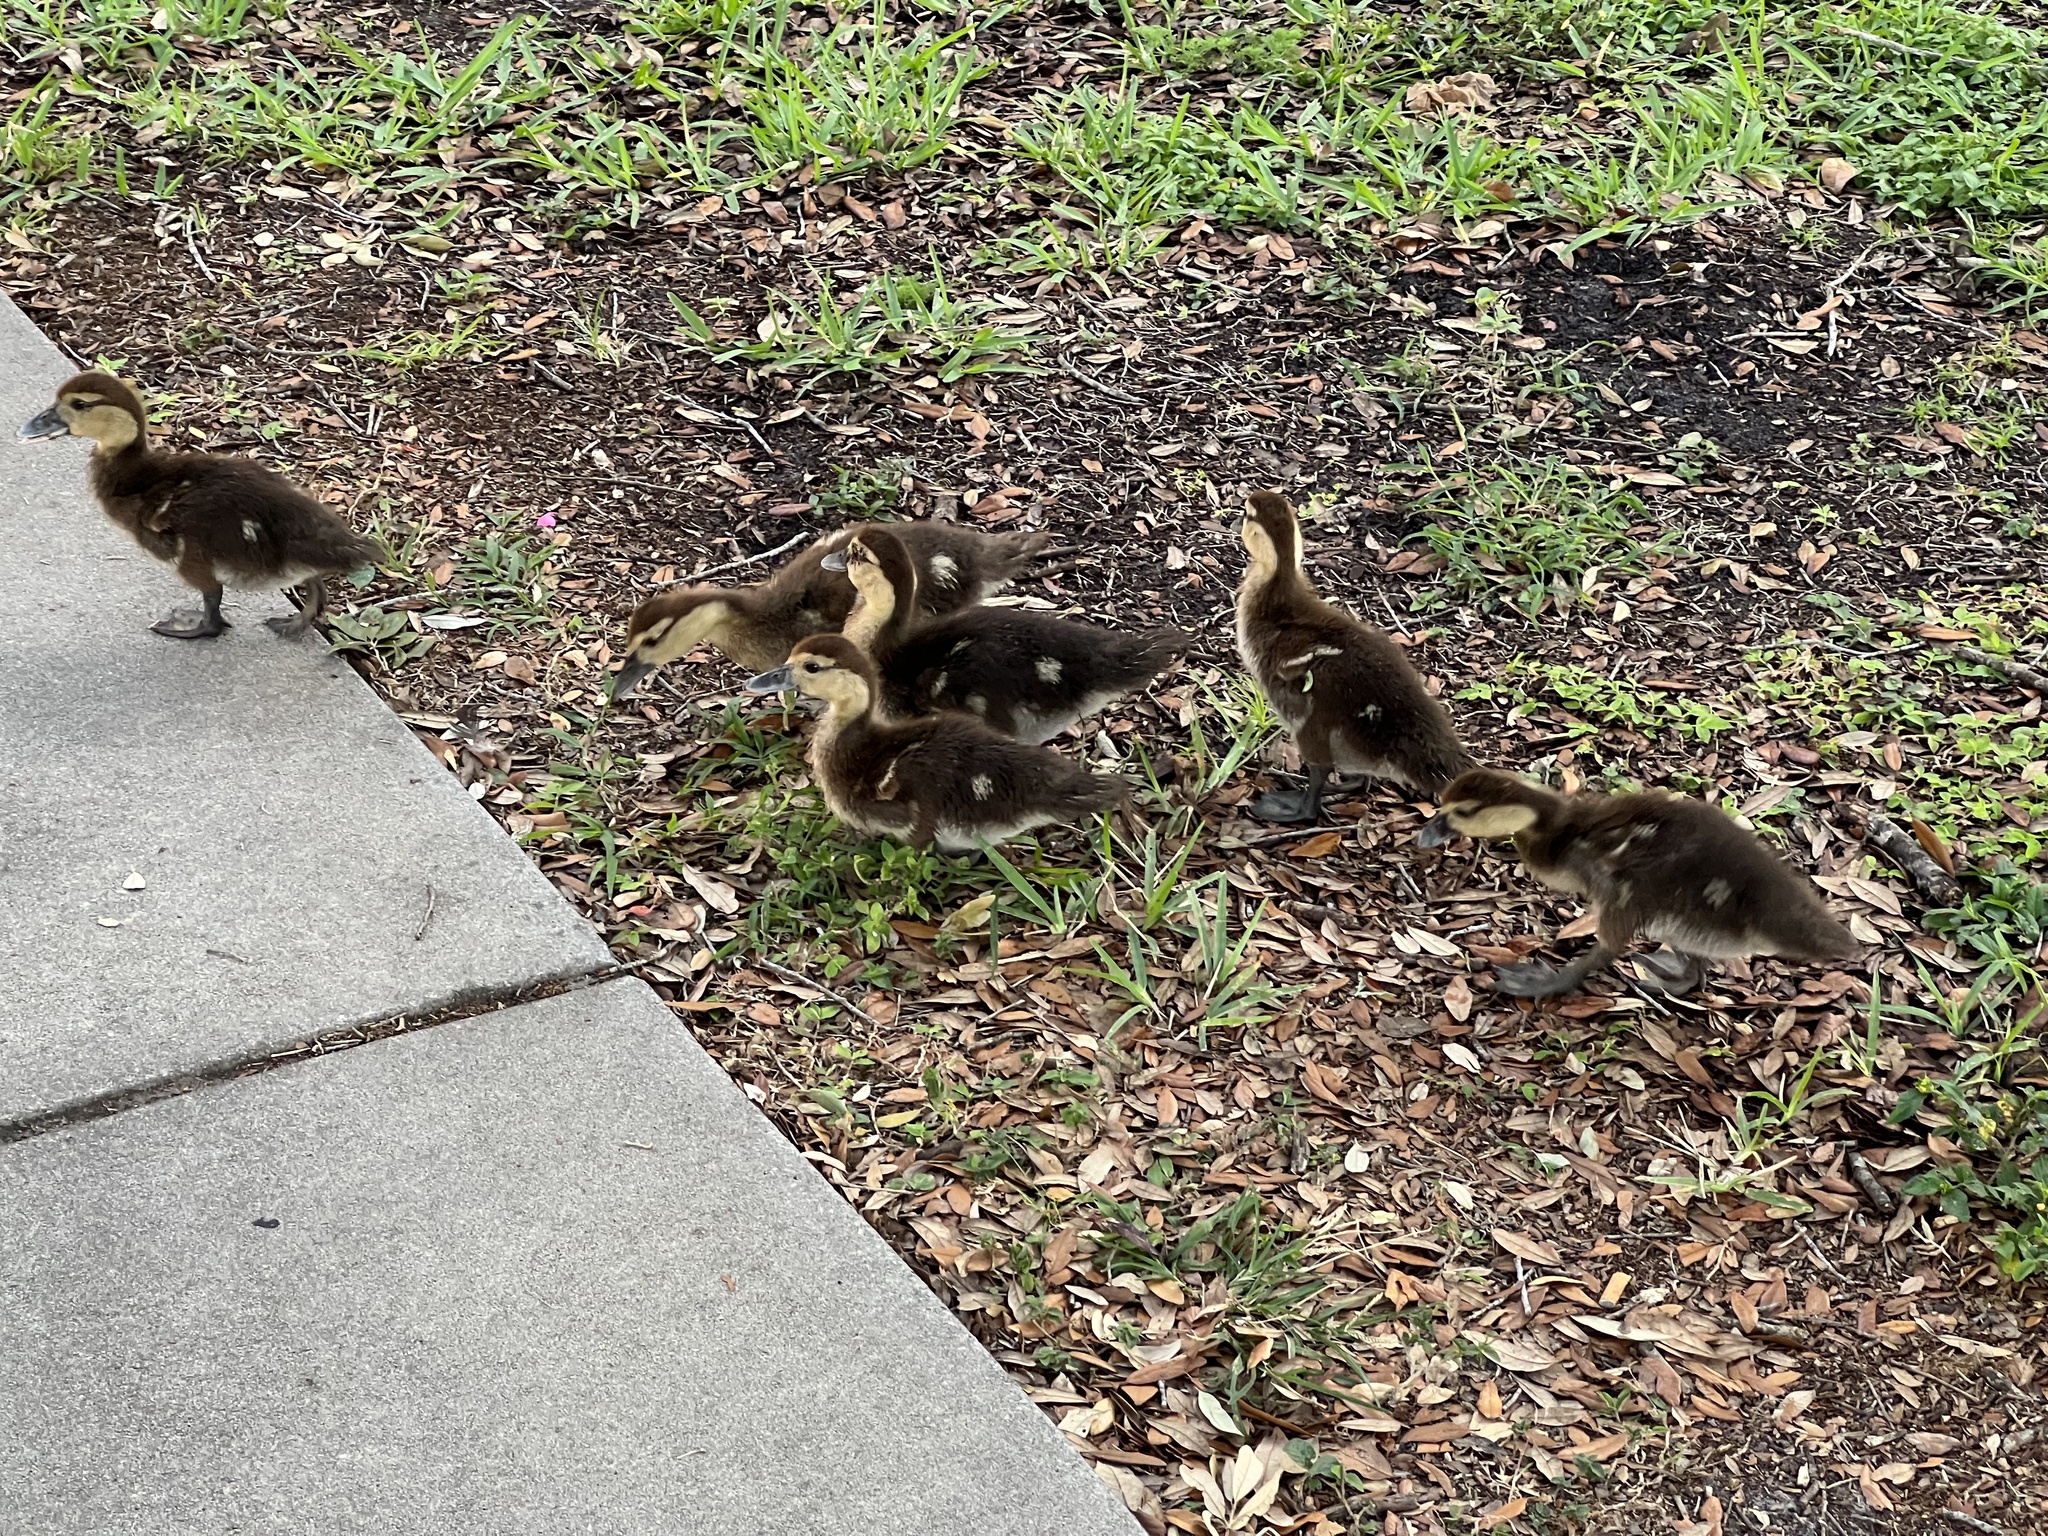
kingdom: Animalia
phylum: Chordata
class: Aves
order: Anseriformes
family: Anatidae
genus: Cairina
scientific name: Cairina moschata
